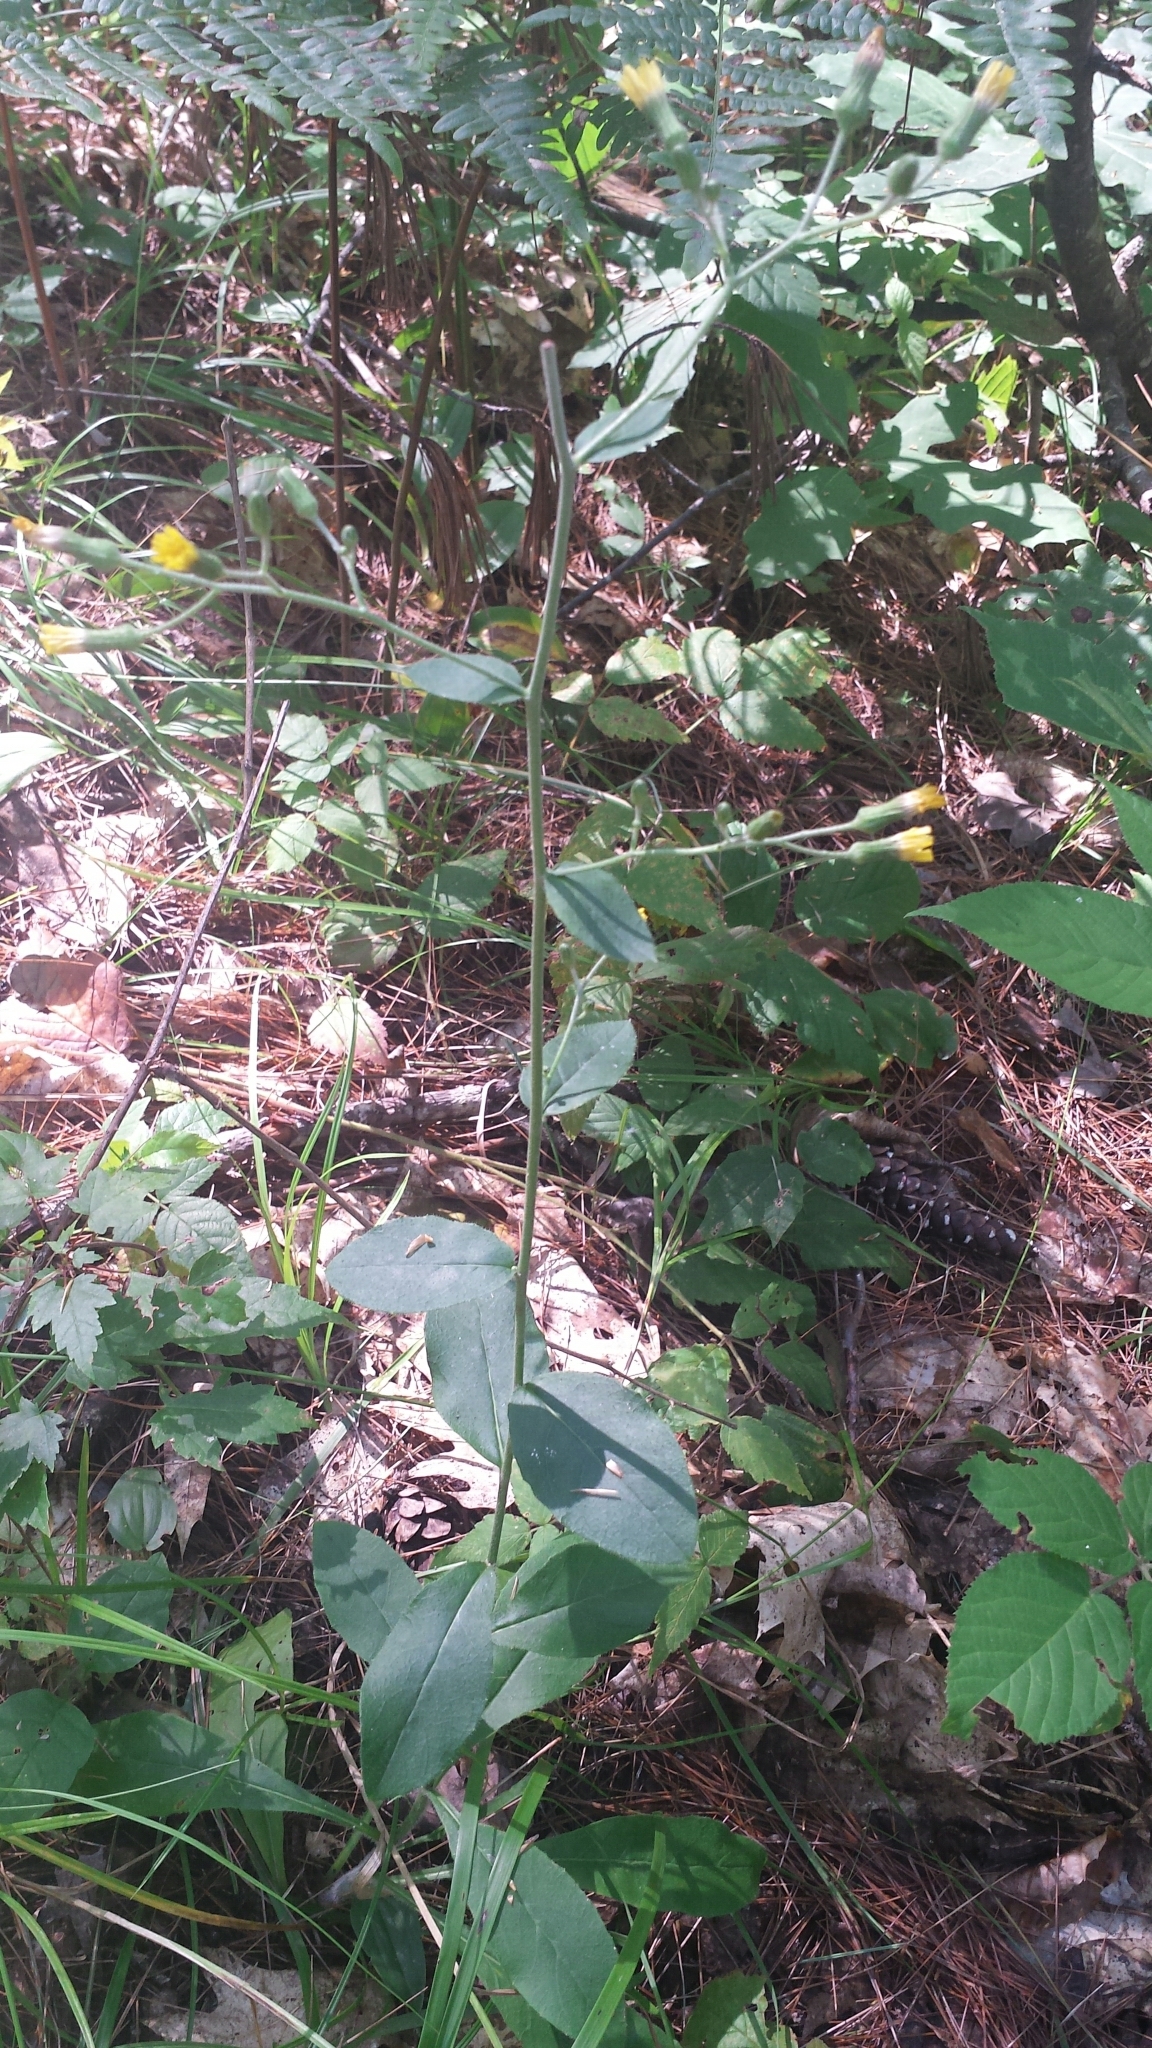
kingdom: Plantae
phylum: Tracheophyta
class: Magnoliopsida
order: Asterales
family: Asteraceae
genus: Hieracium
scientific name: Hieracium scabrum
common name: Rough hawkweed
